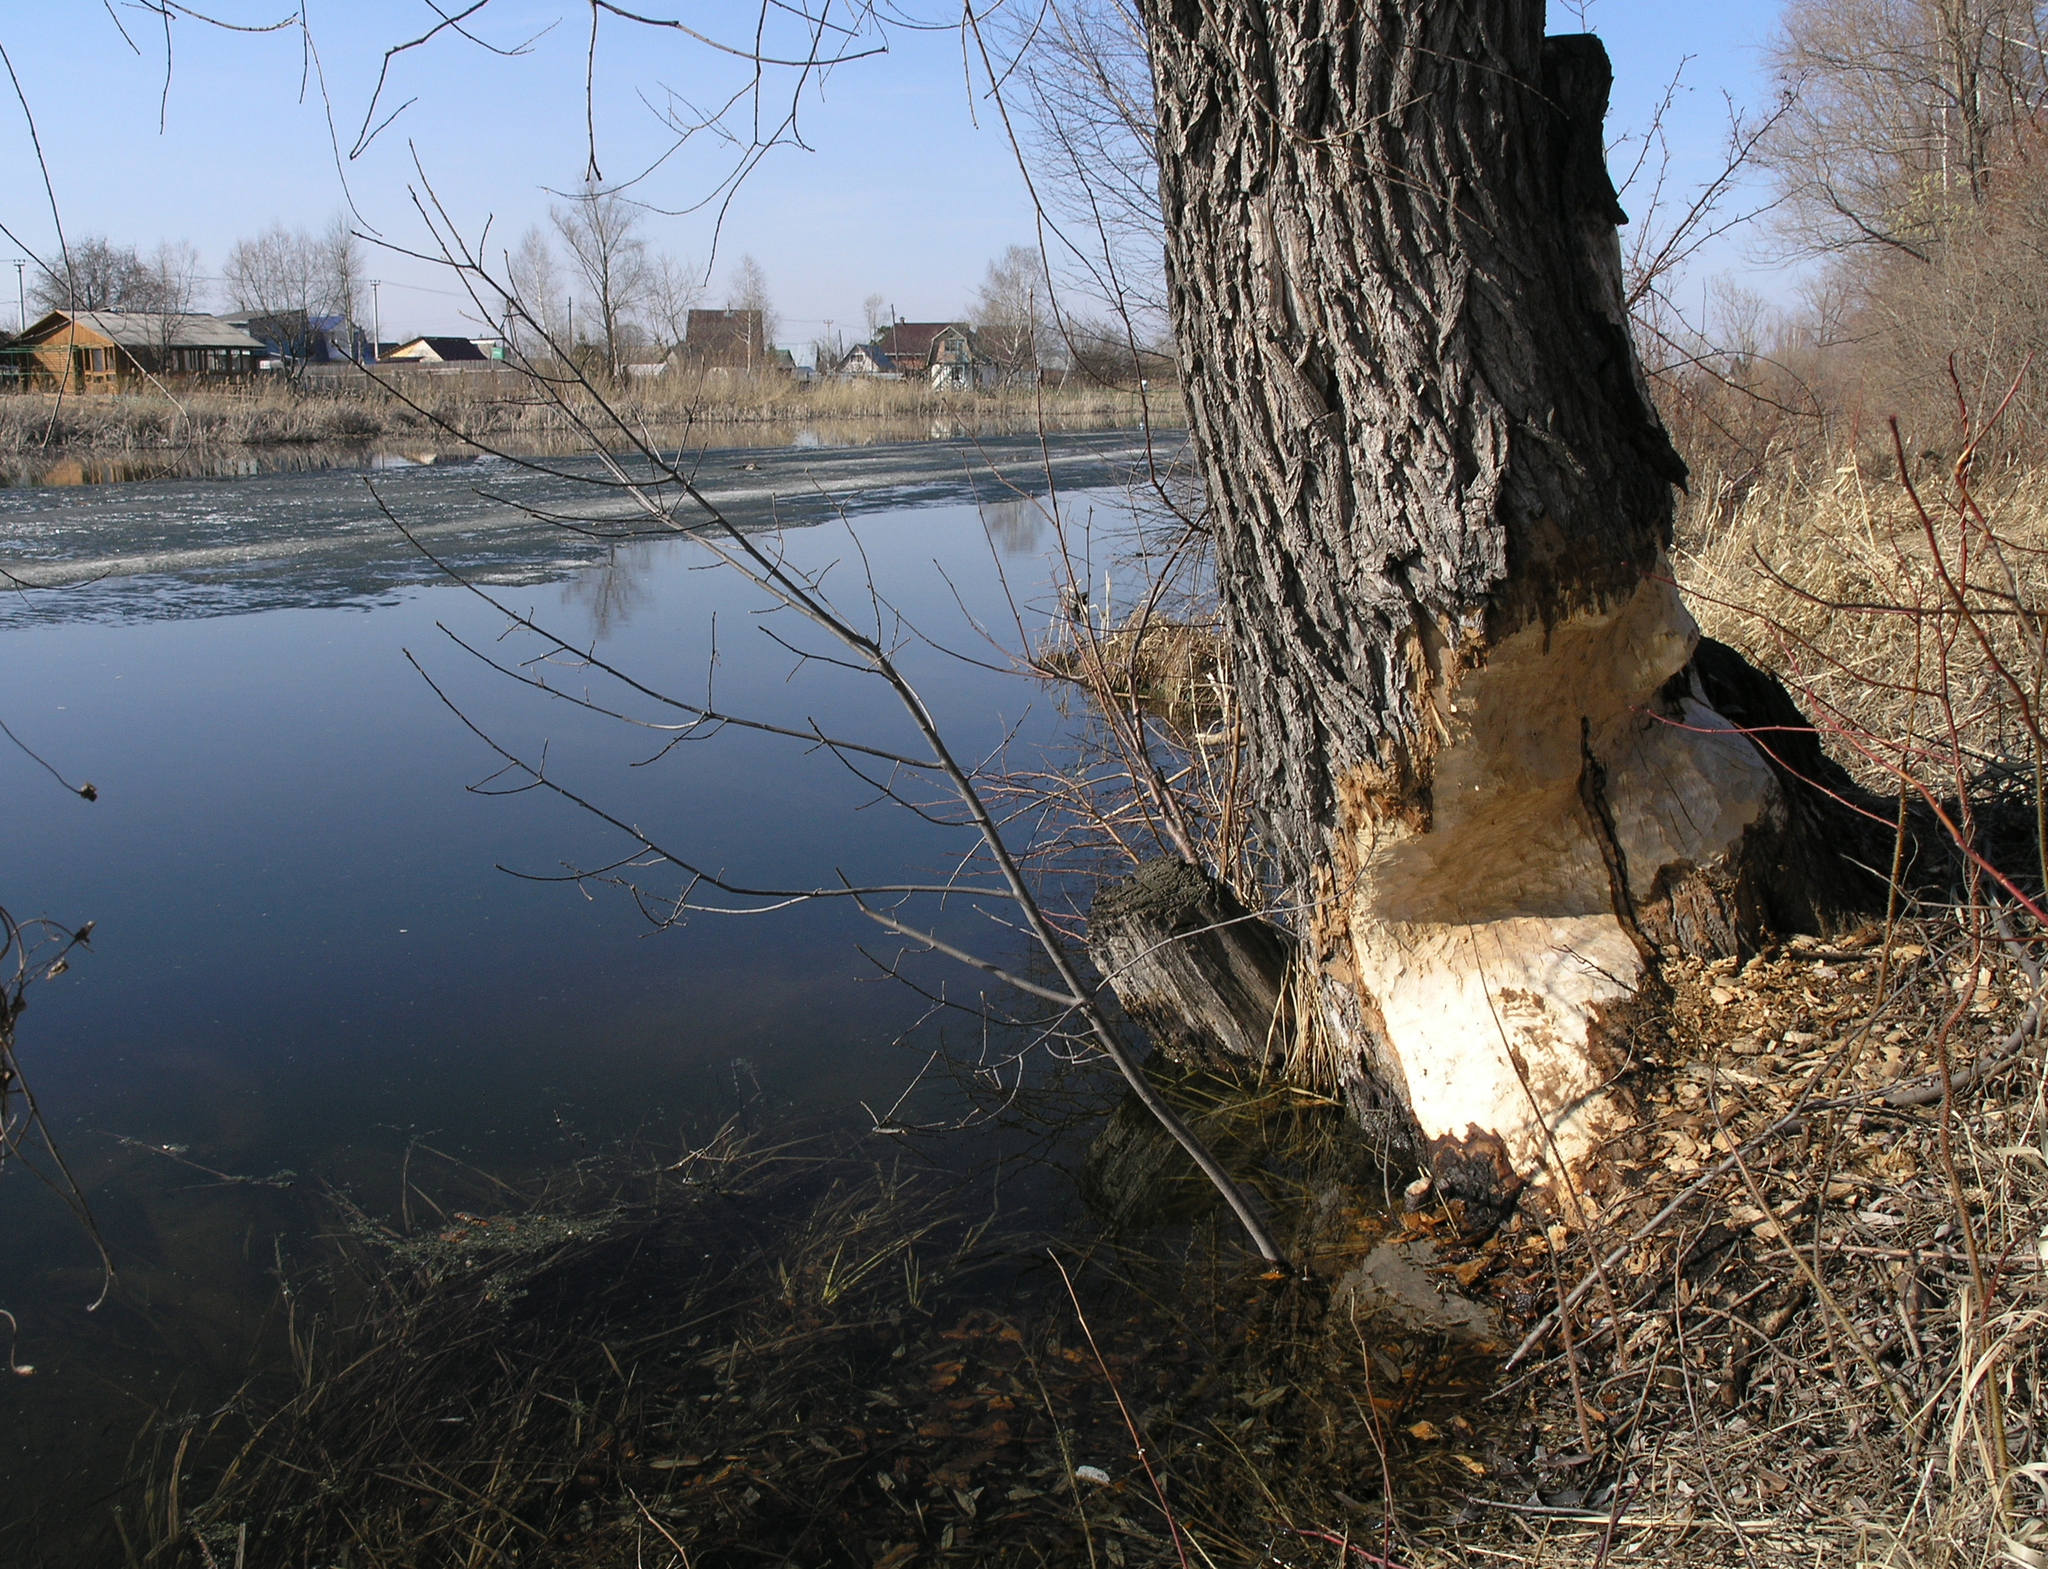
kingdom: Animalia
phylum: Chordata
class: Mammalia
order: Rodentia
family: Castoridae
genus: Castor
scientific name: Castor fiber
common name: Eurasian beaver
